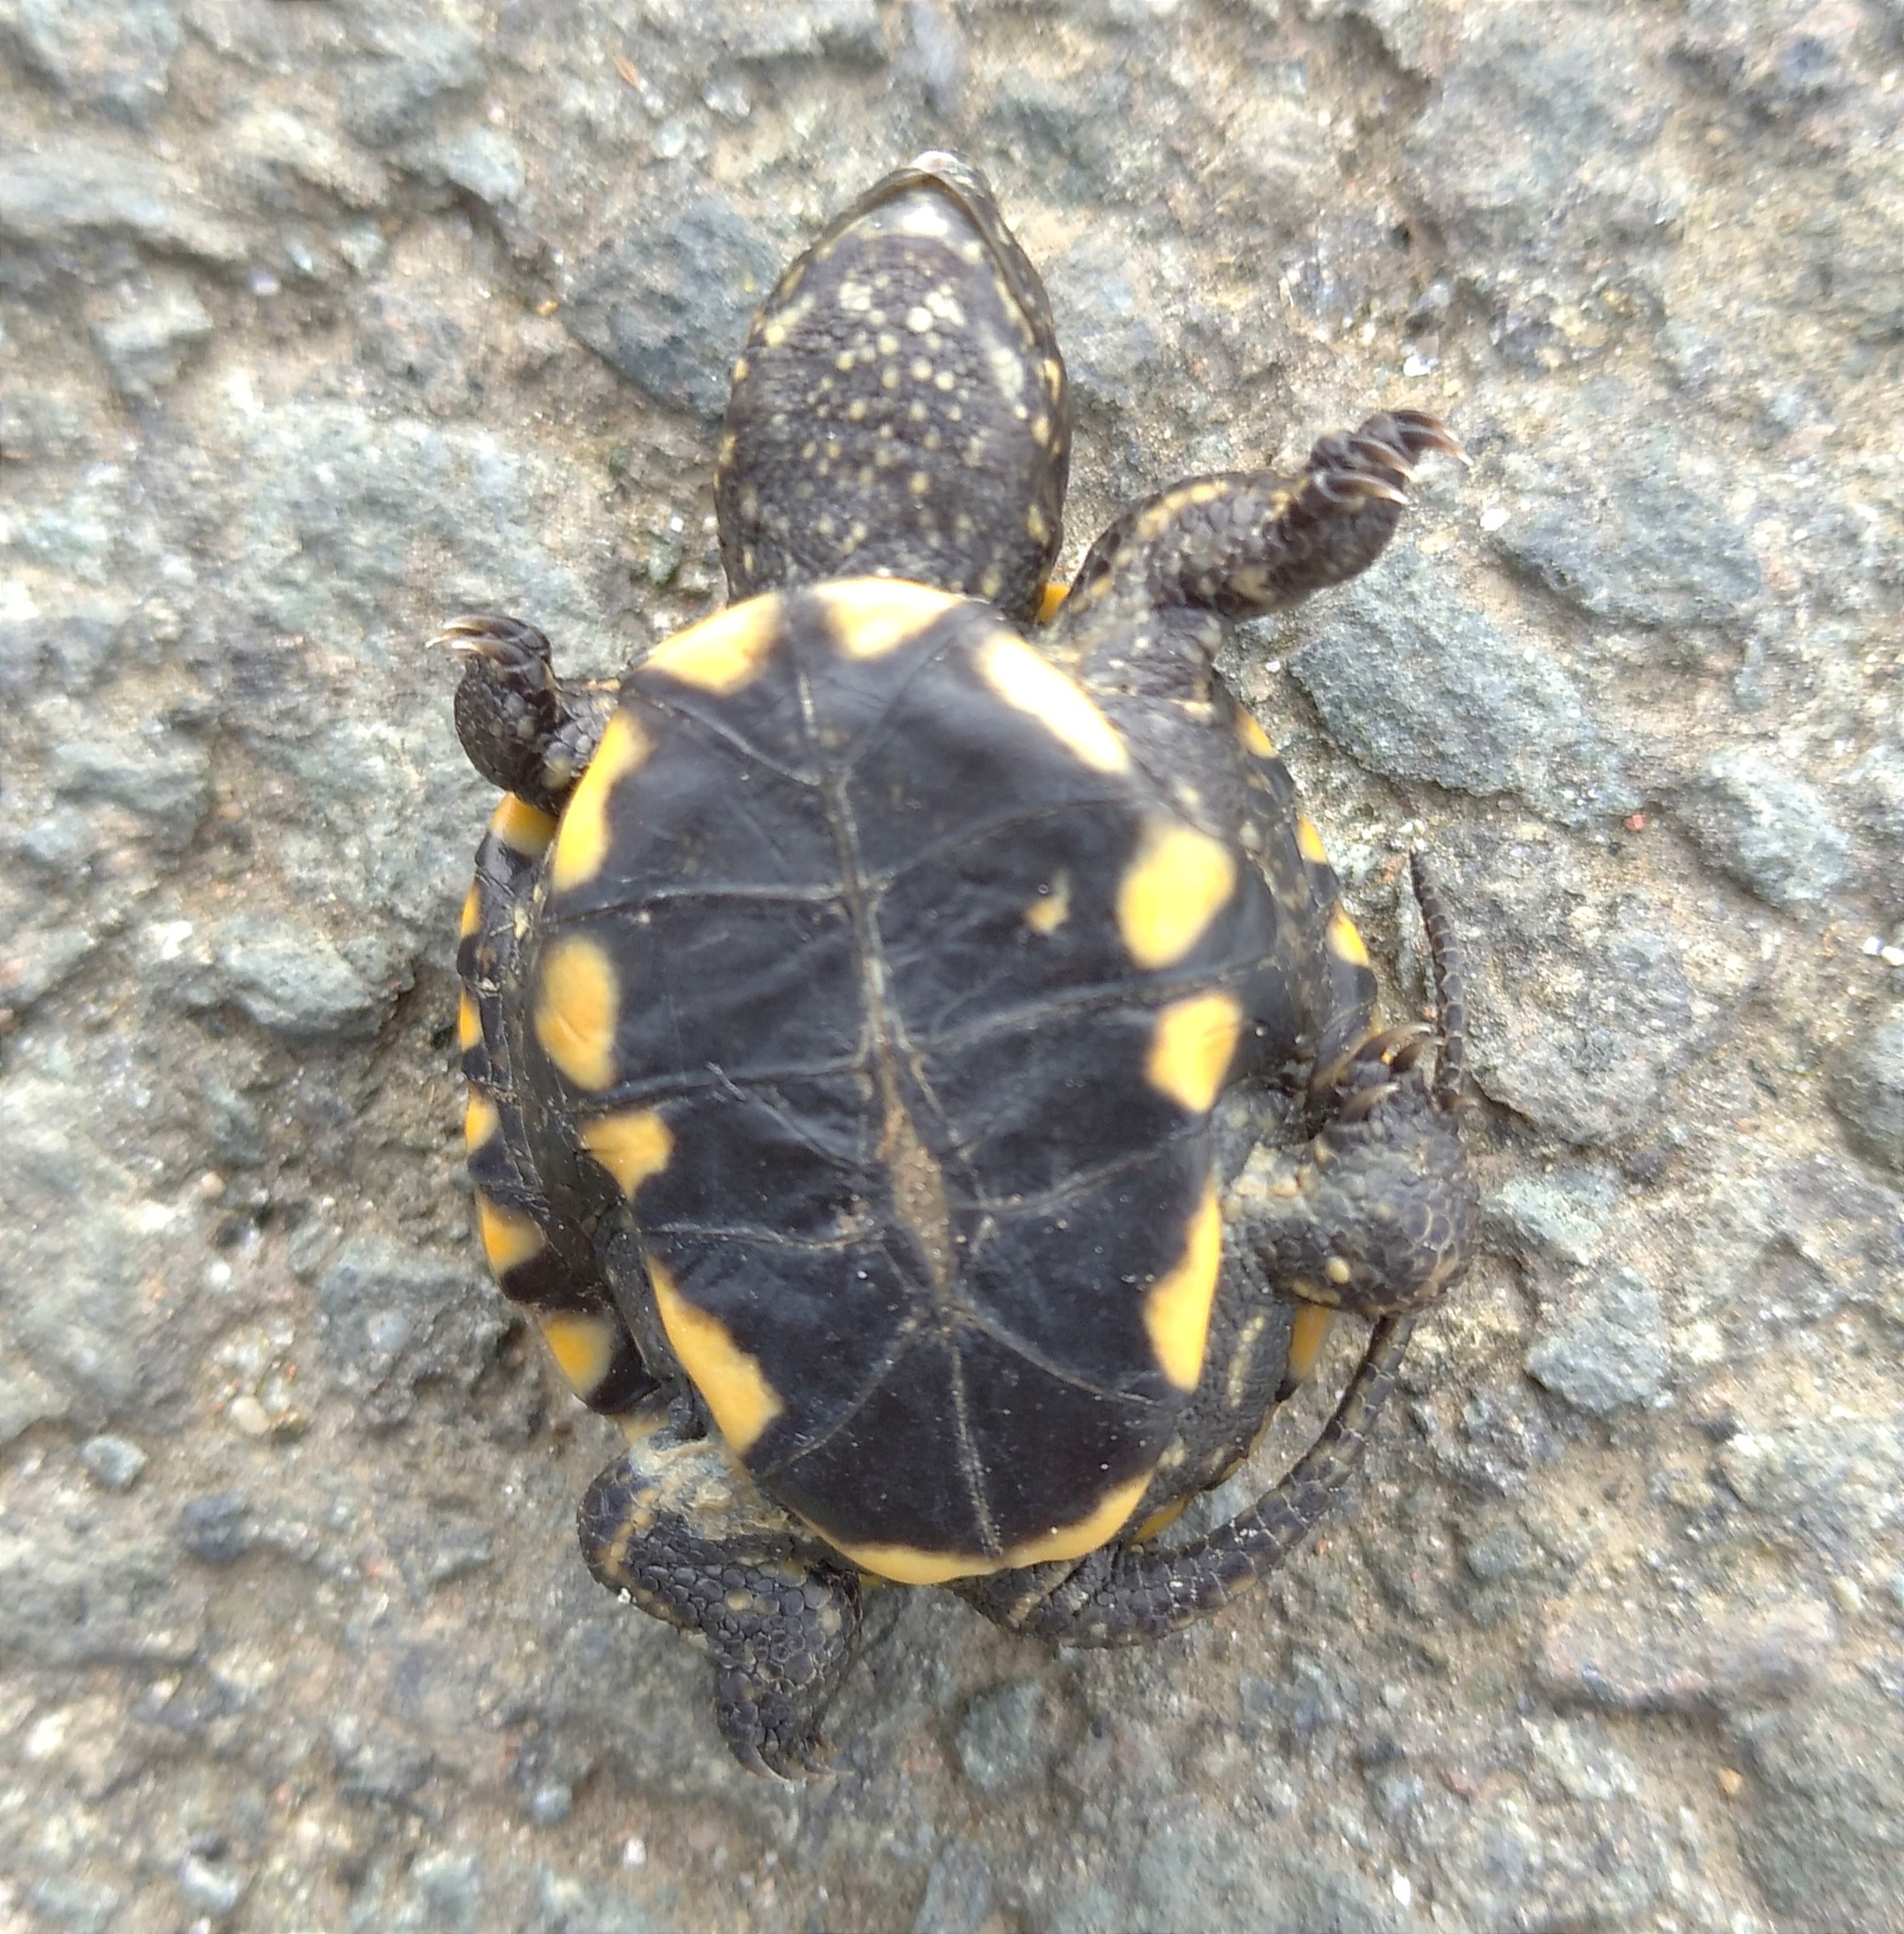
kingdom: Animalia
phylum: Chordata
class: Testudines
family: Emydidae
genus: Emys
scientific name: Emys orbicularis
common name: European pond turtle
